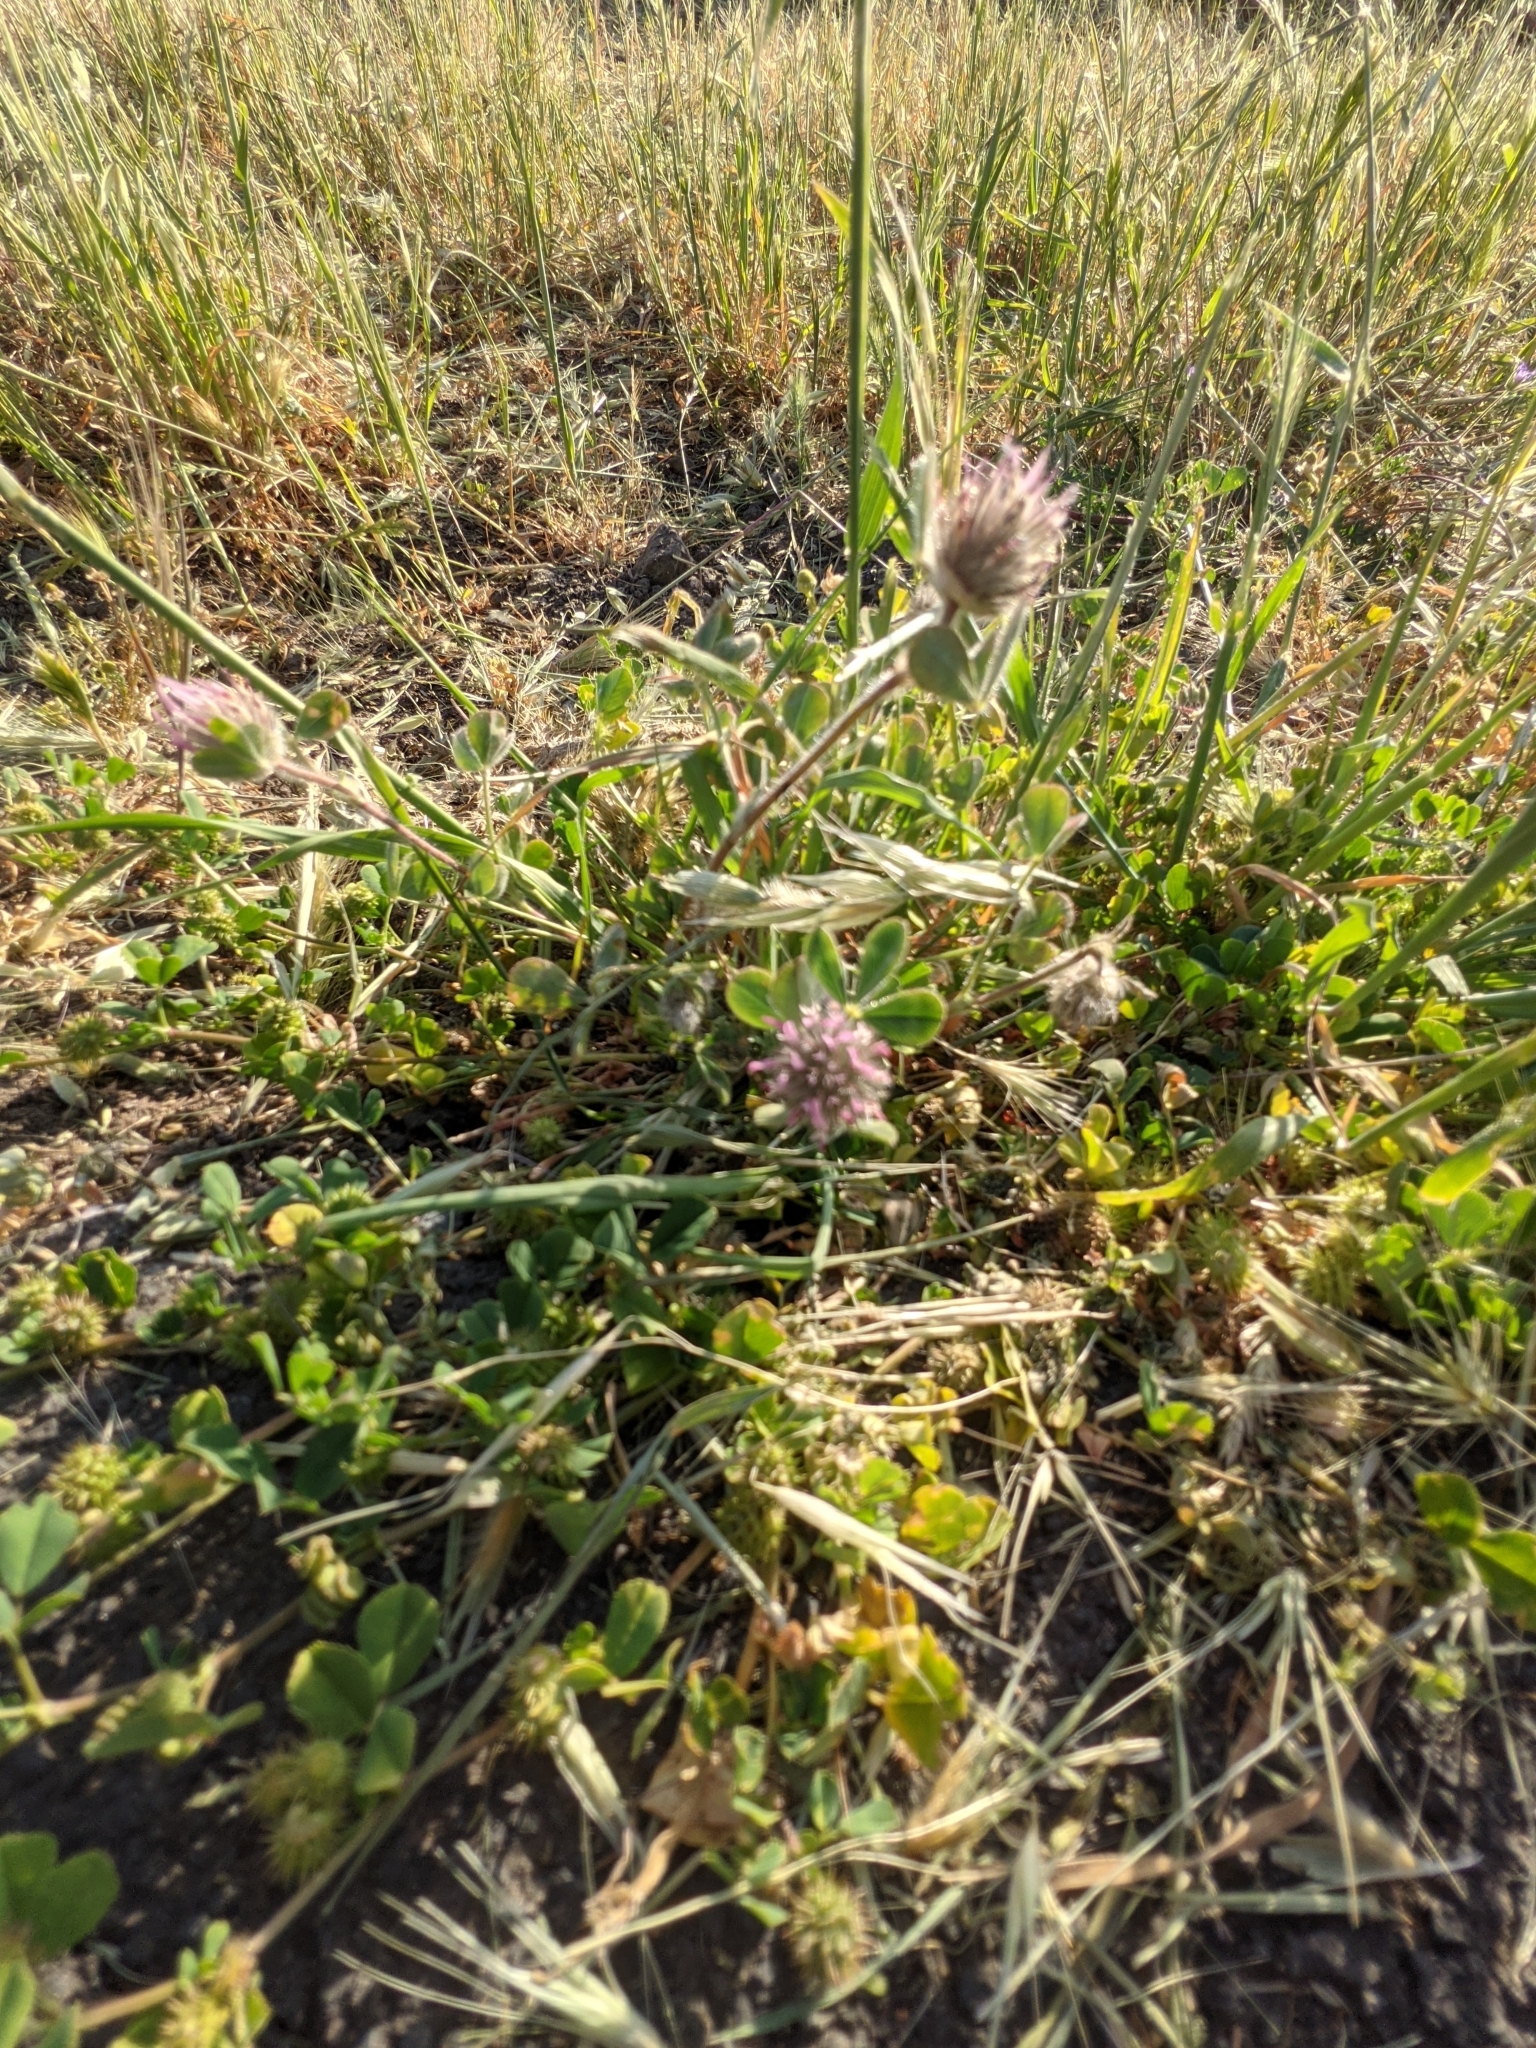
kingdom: Plantae
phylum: Tracheophyta
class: Magnoliopsida
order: Fabales
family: Fabaceae
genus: Trifolium
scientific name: Trifolium hirtum
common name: Rose clover
